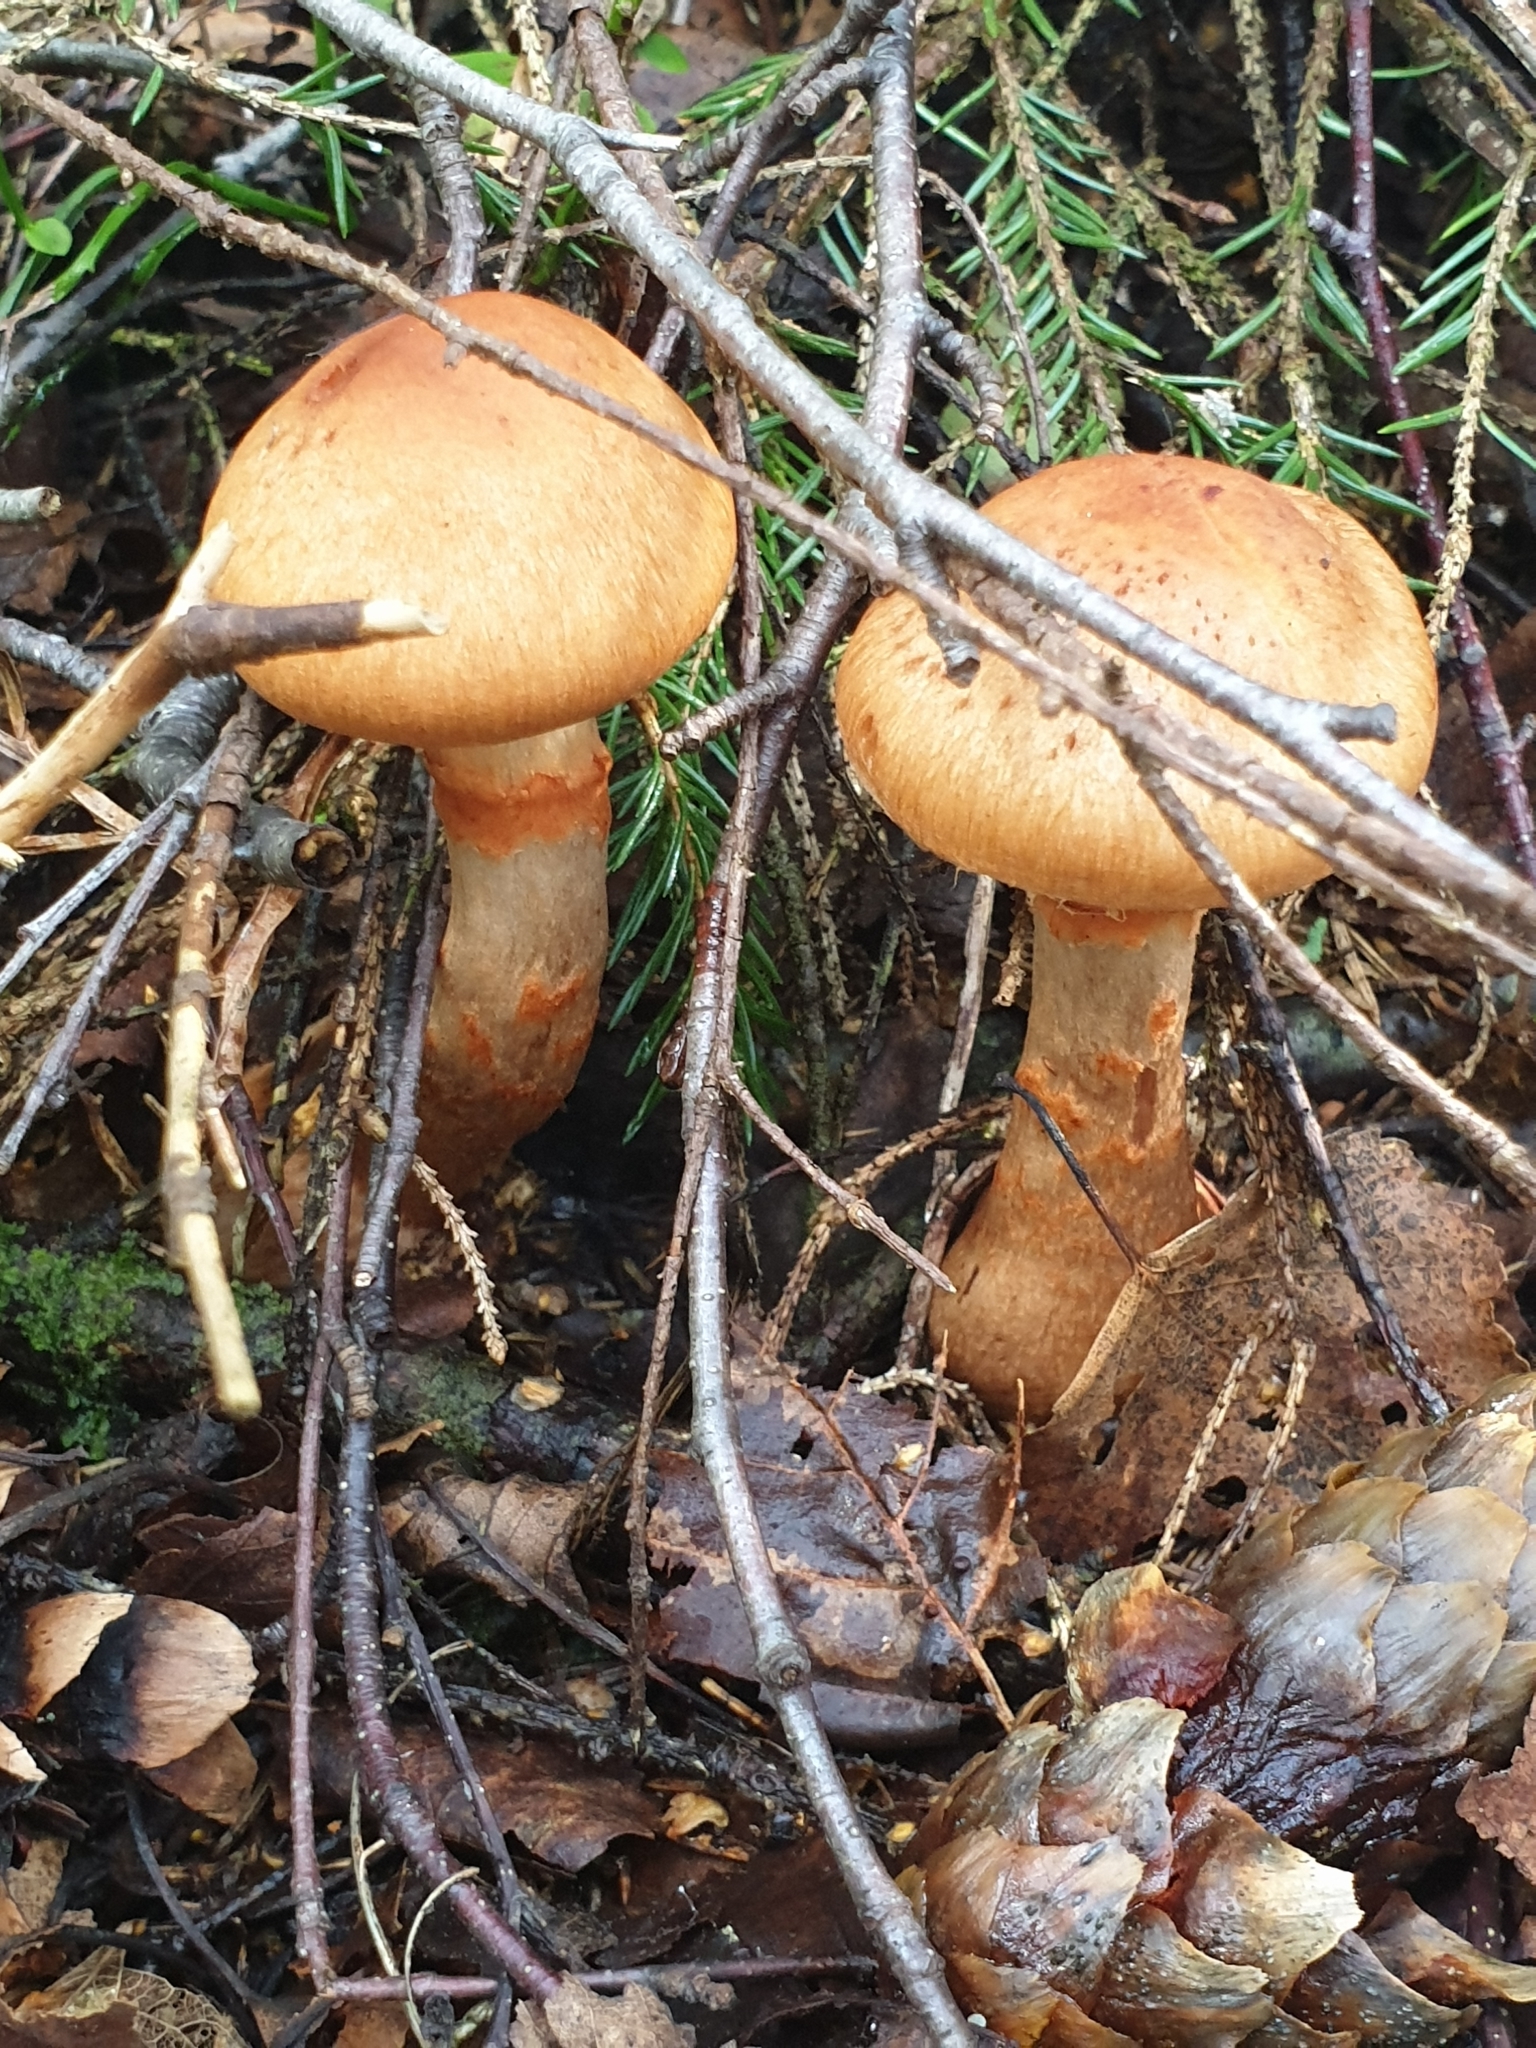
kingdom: Fungi
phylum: Basidiomycota
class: Agaricomycetes
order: Agaricales
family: Cortinariaceae
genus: Cortinarius
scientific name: Cortinarius armillatus
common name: Red banded webcap
